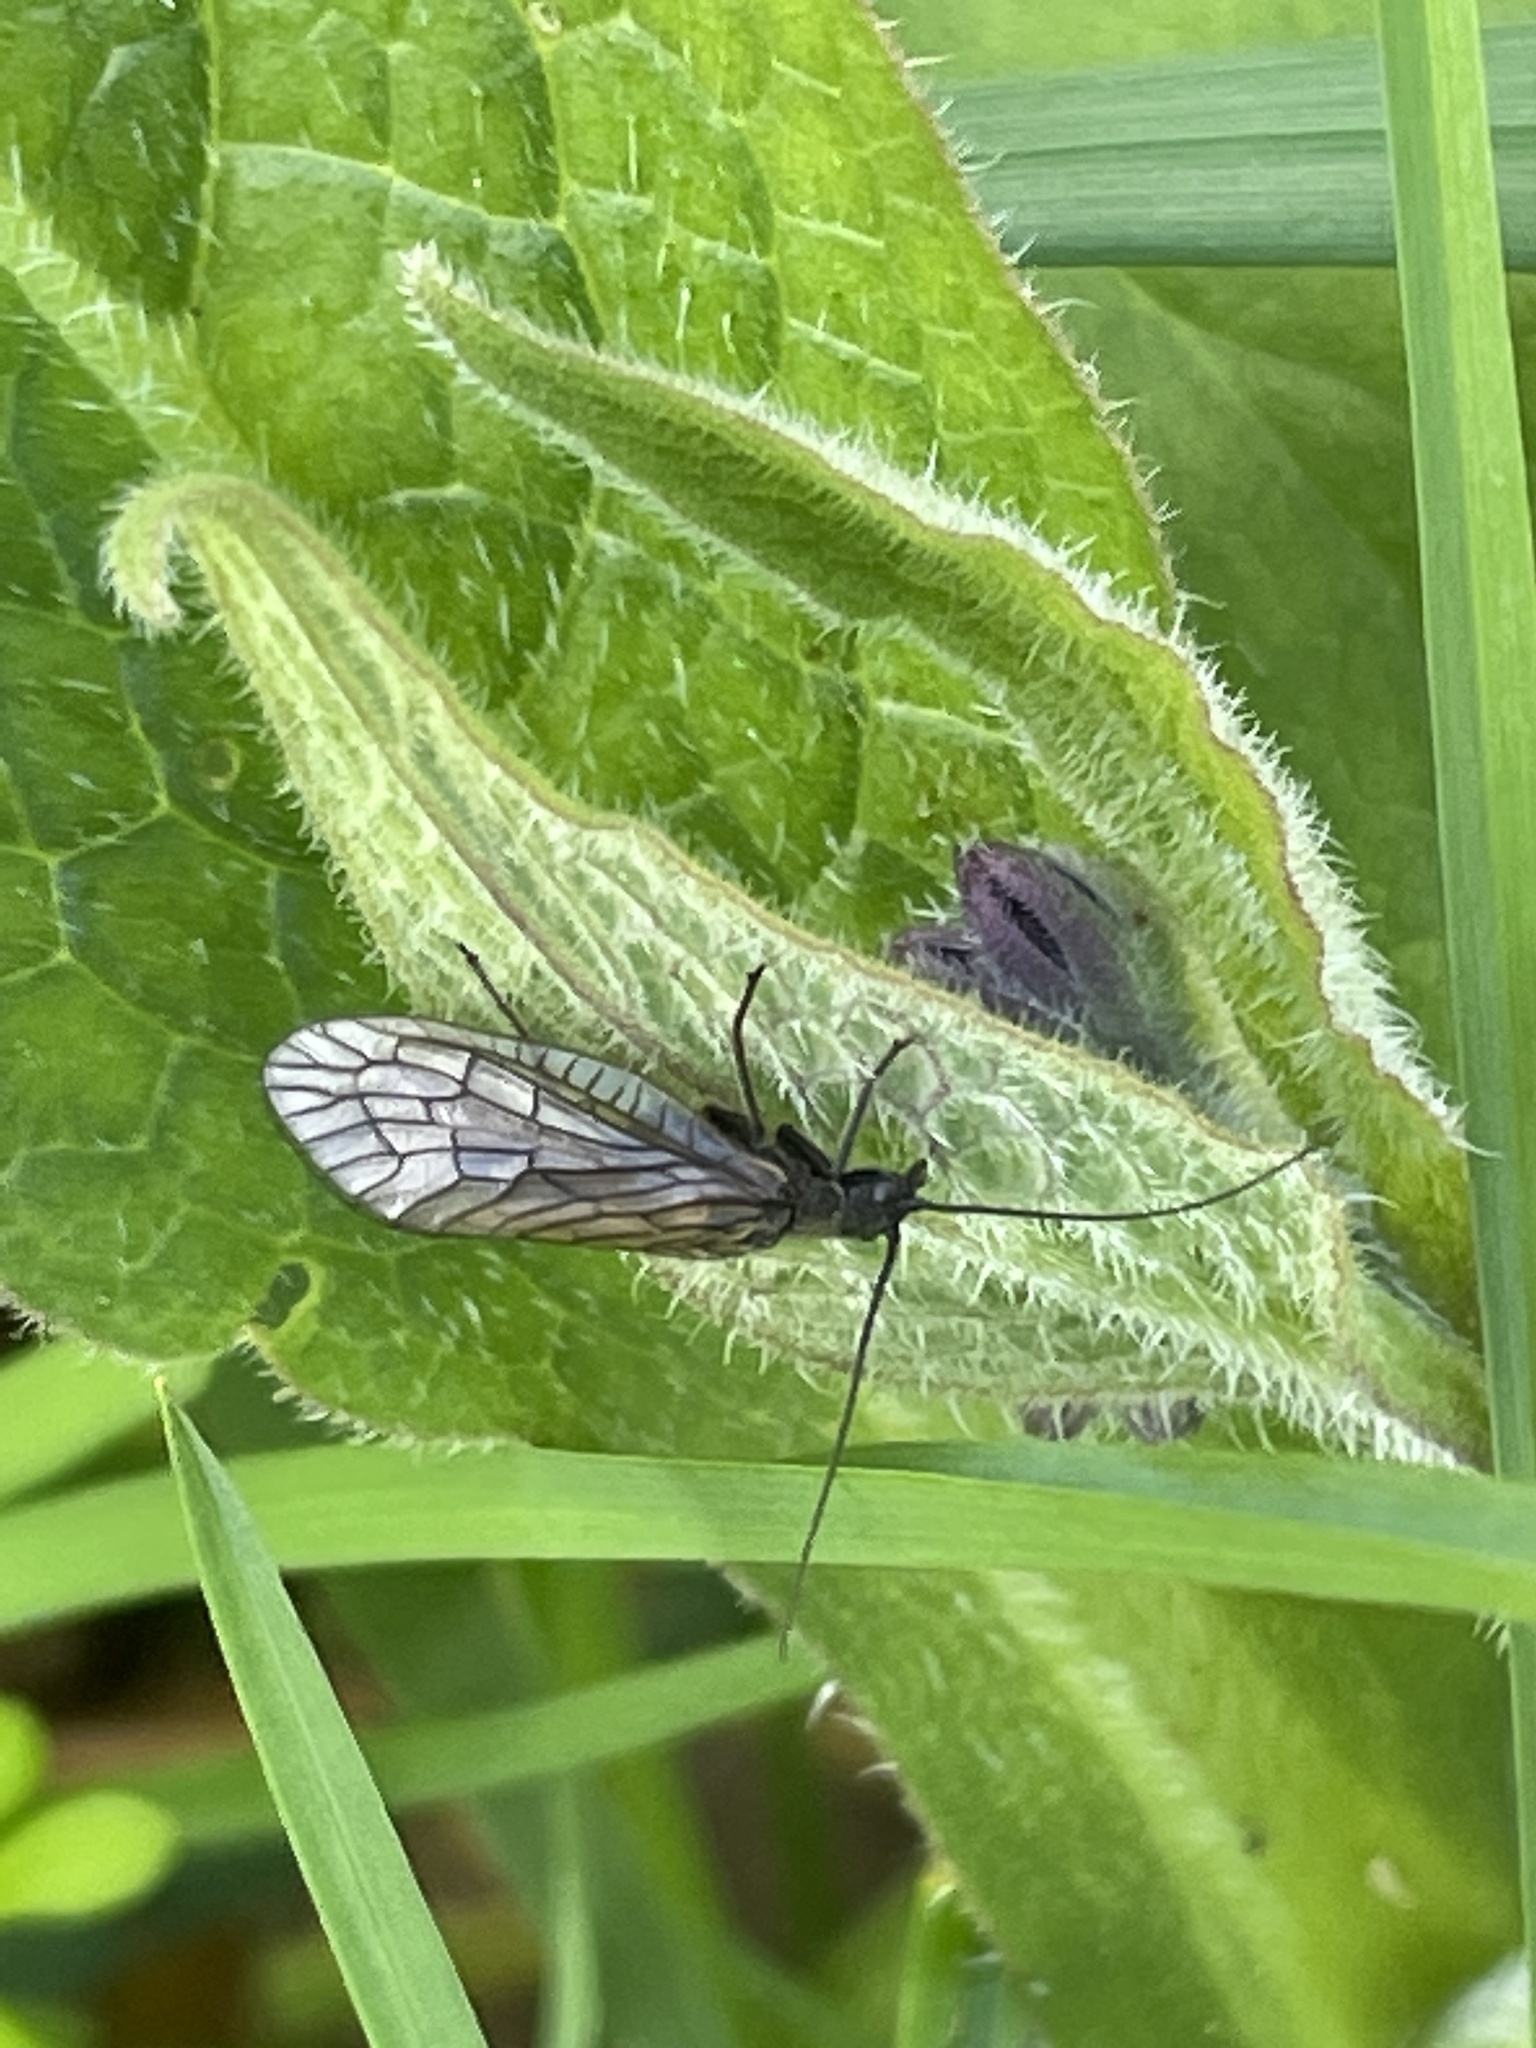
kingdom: Animalia
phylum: Arthropoda
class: Insecta
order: Megaloptera
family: Sialidae
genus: Sialis
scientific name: Sialis
